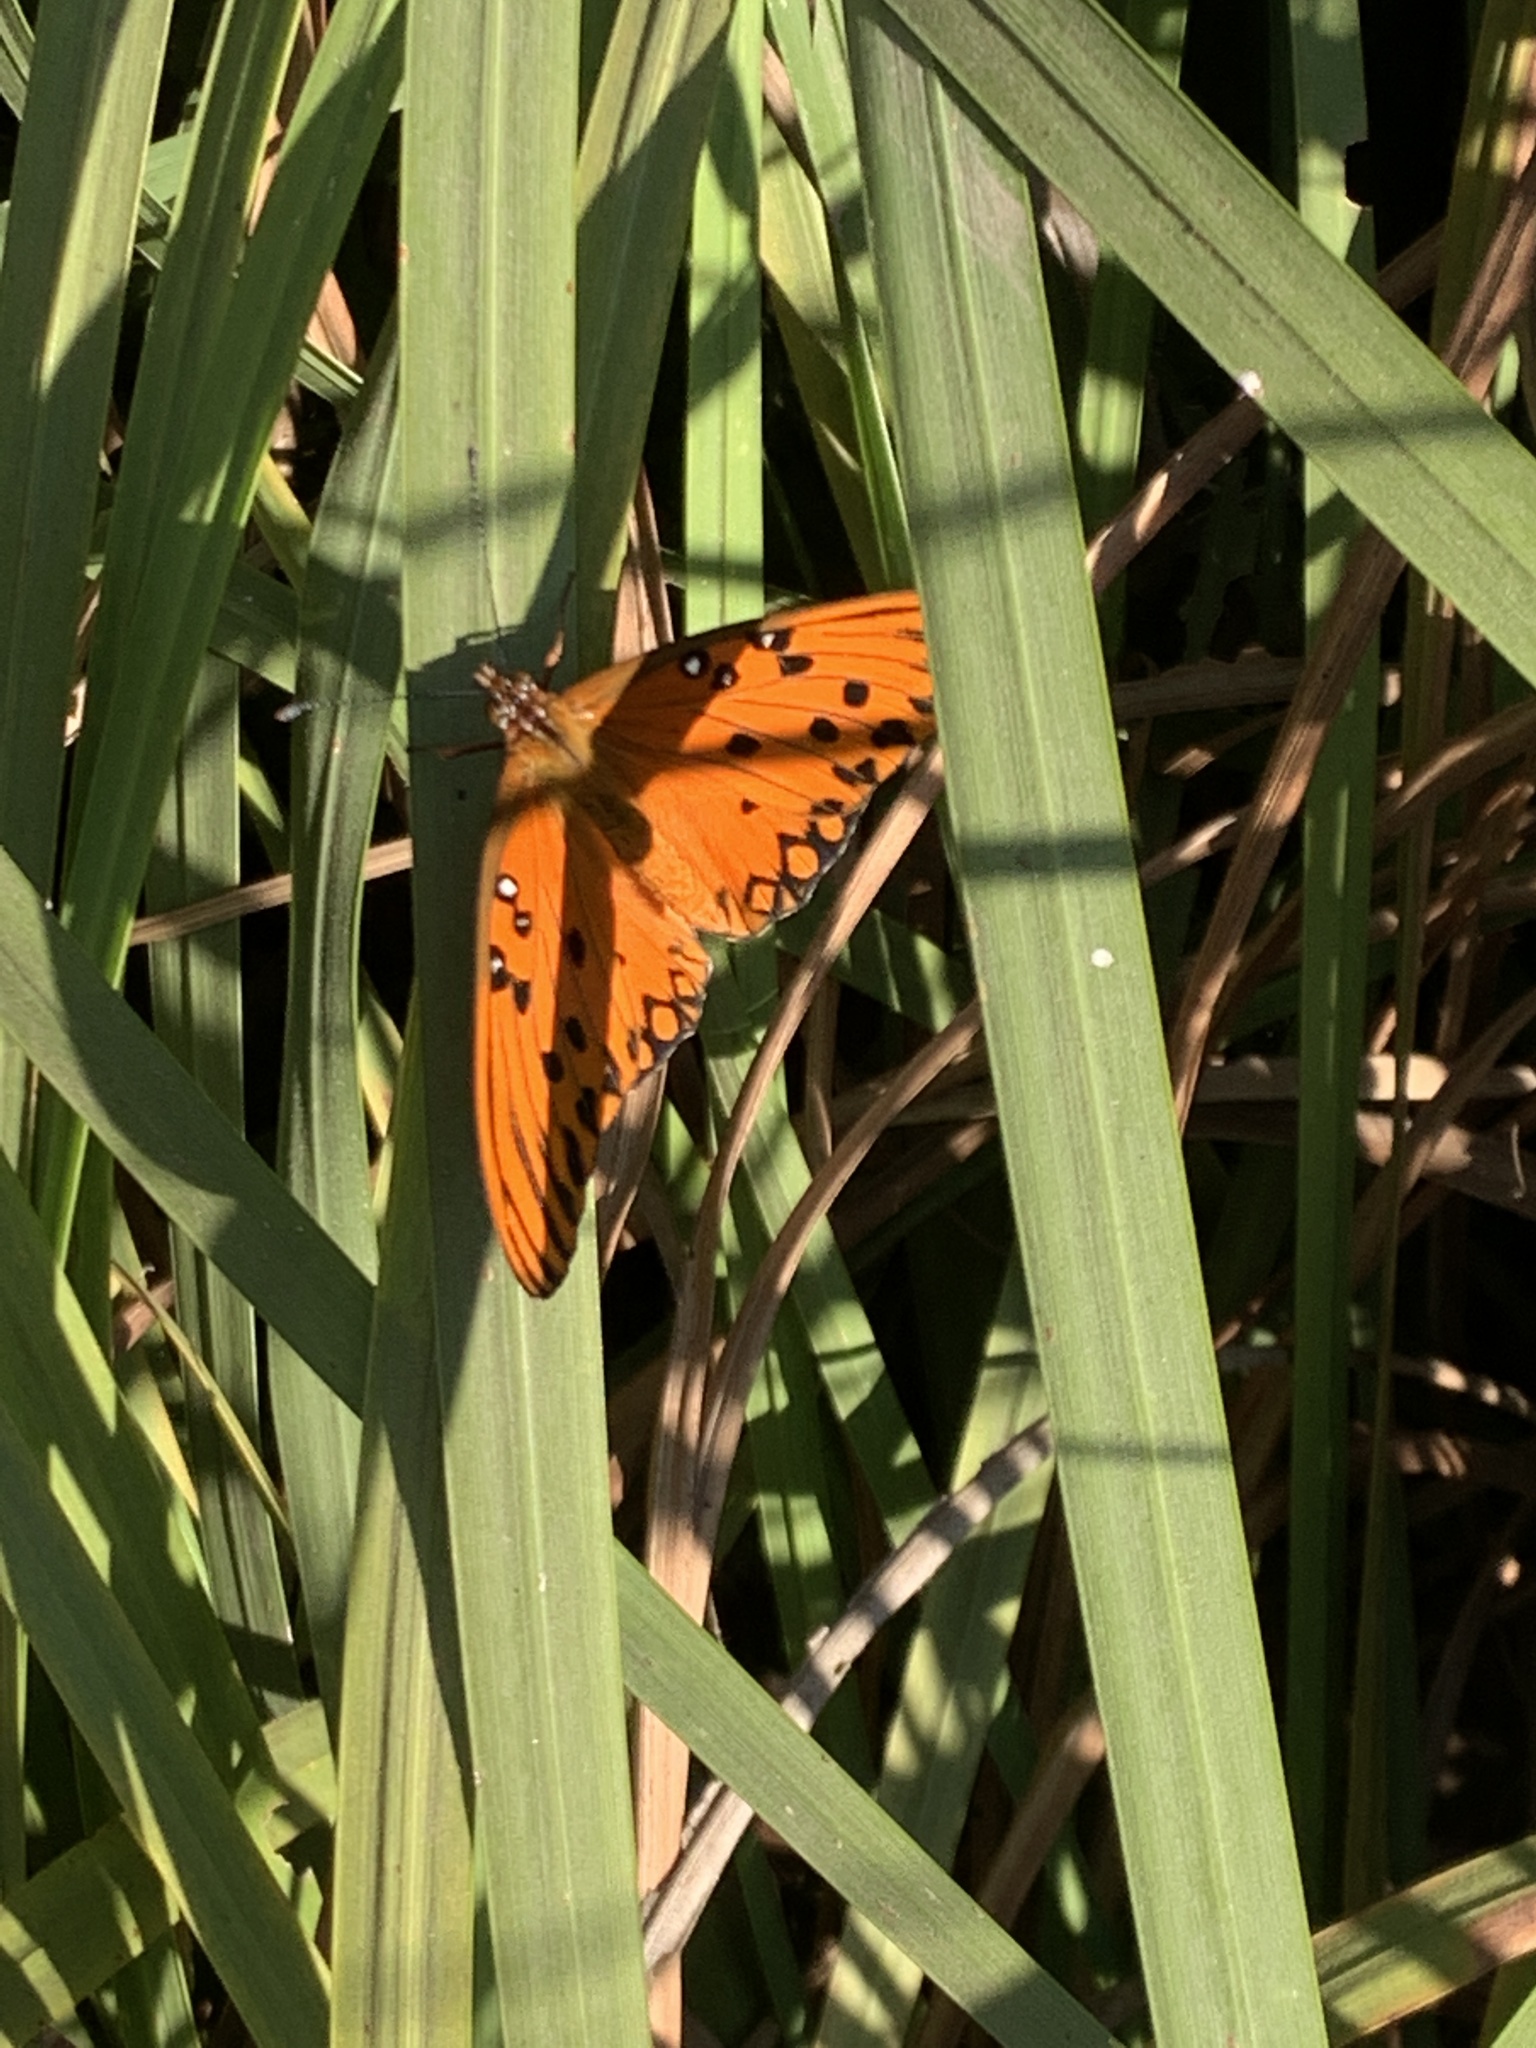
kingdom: Animalia
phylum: Arthropoda
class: Insecta
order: Lepidoptera
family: Nymphalidae
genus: Dione
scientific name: Dione vanillae
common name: Gulf fritillary
